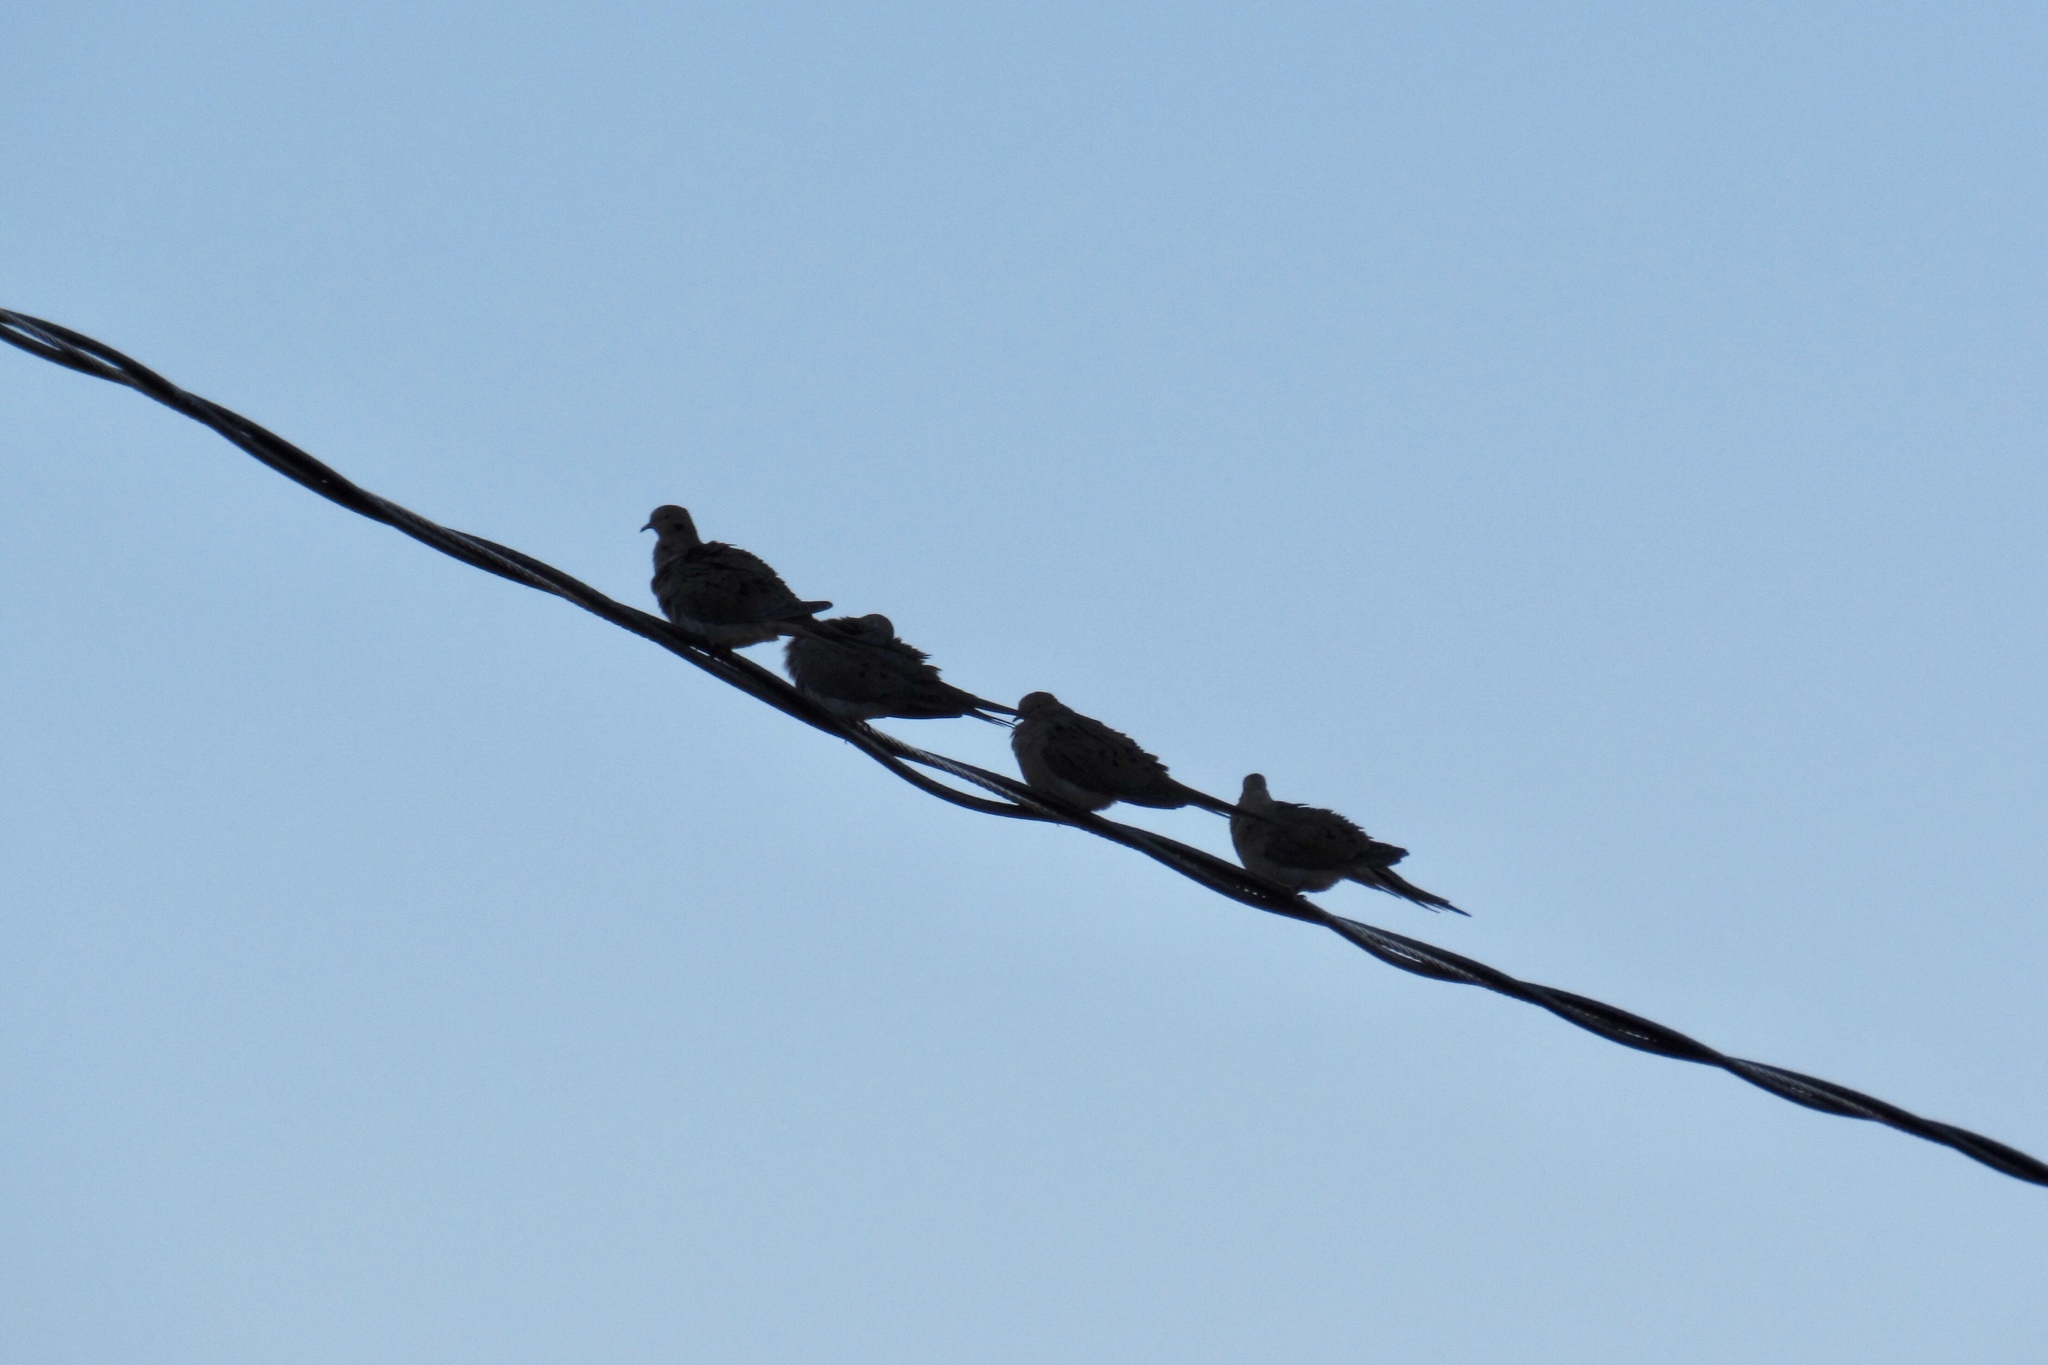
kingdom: Animalia
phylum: Chordata
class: Aves
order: Columbiformes
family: Columbidae
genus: Zenaida
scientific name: Zenaida macroura
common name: Mourning dove
